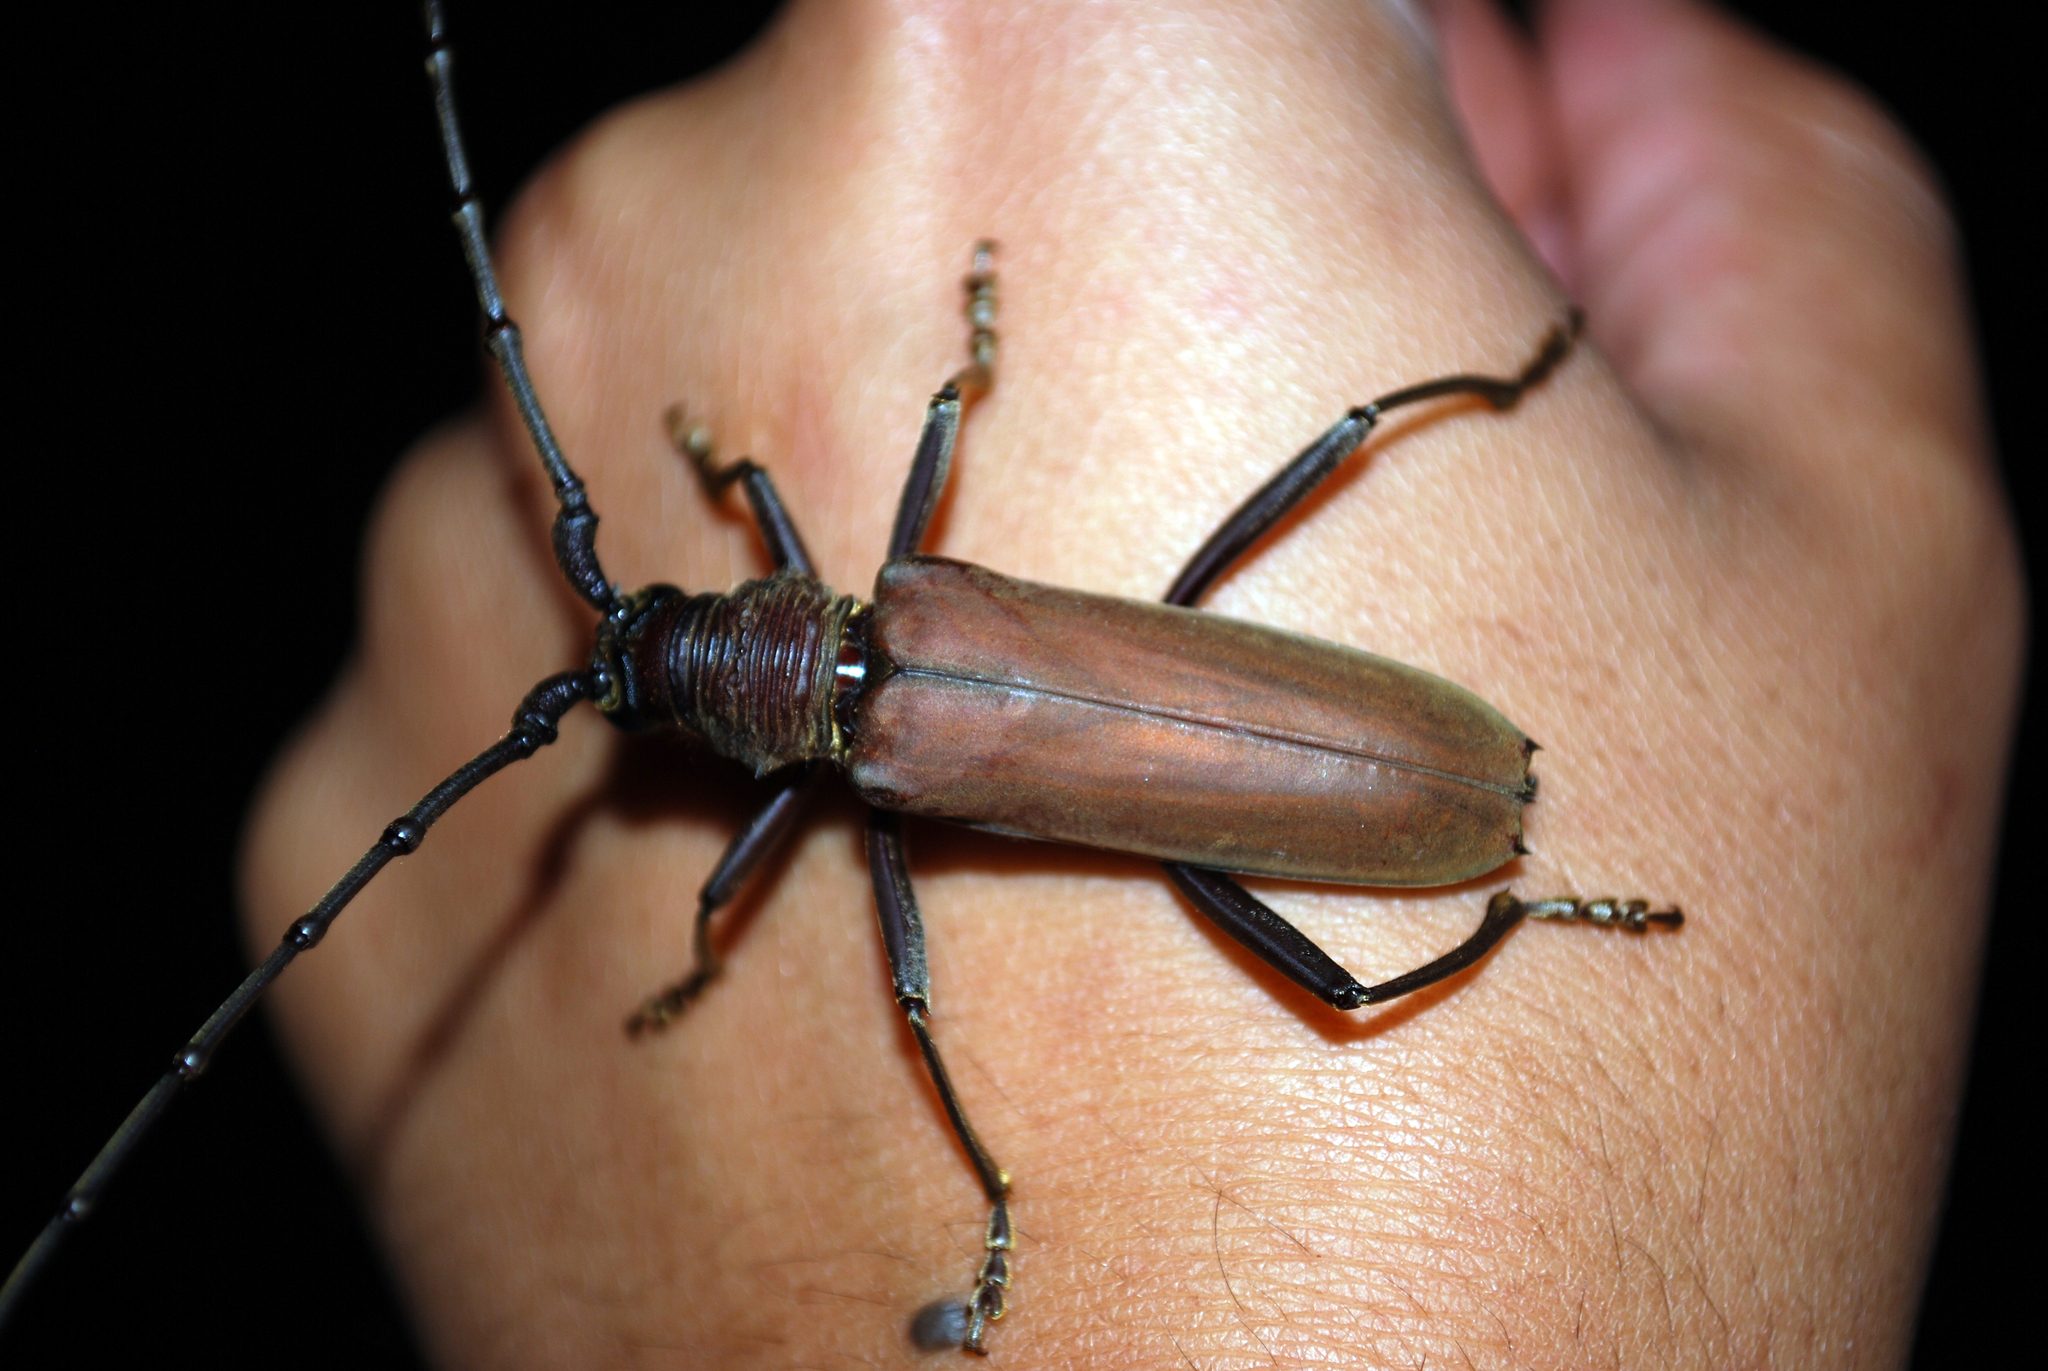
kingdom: Animalia
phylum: Arthropoda
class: Insecta
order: Coleoptera
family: Cerambycidae
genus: Jupoata
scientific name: Jupoata robusta
